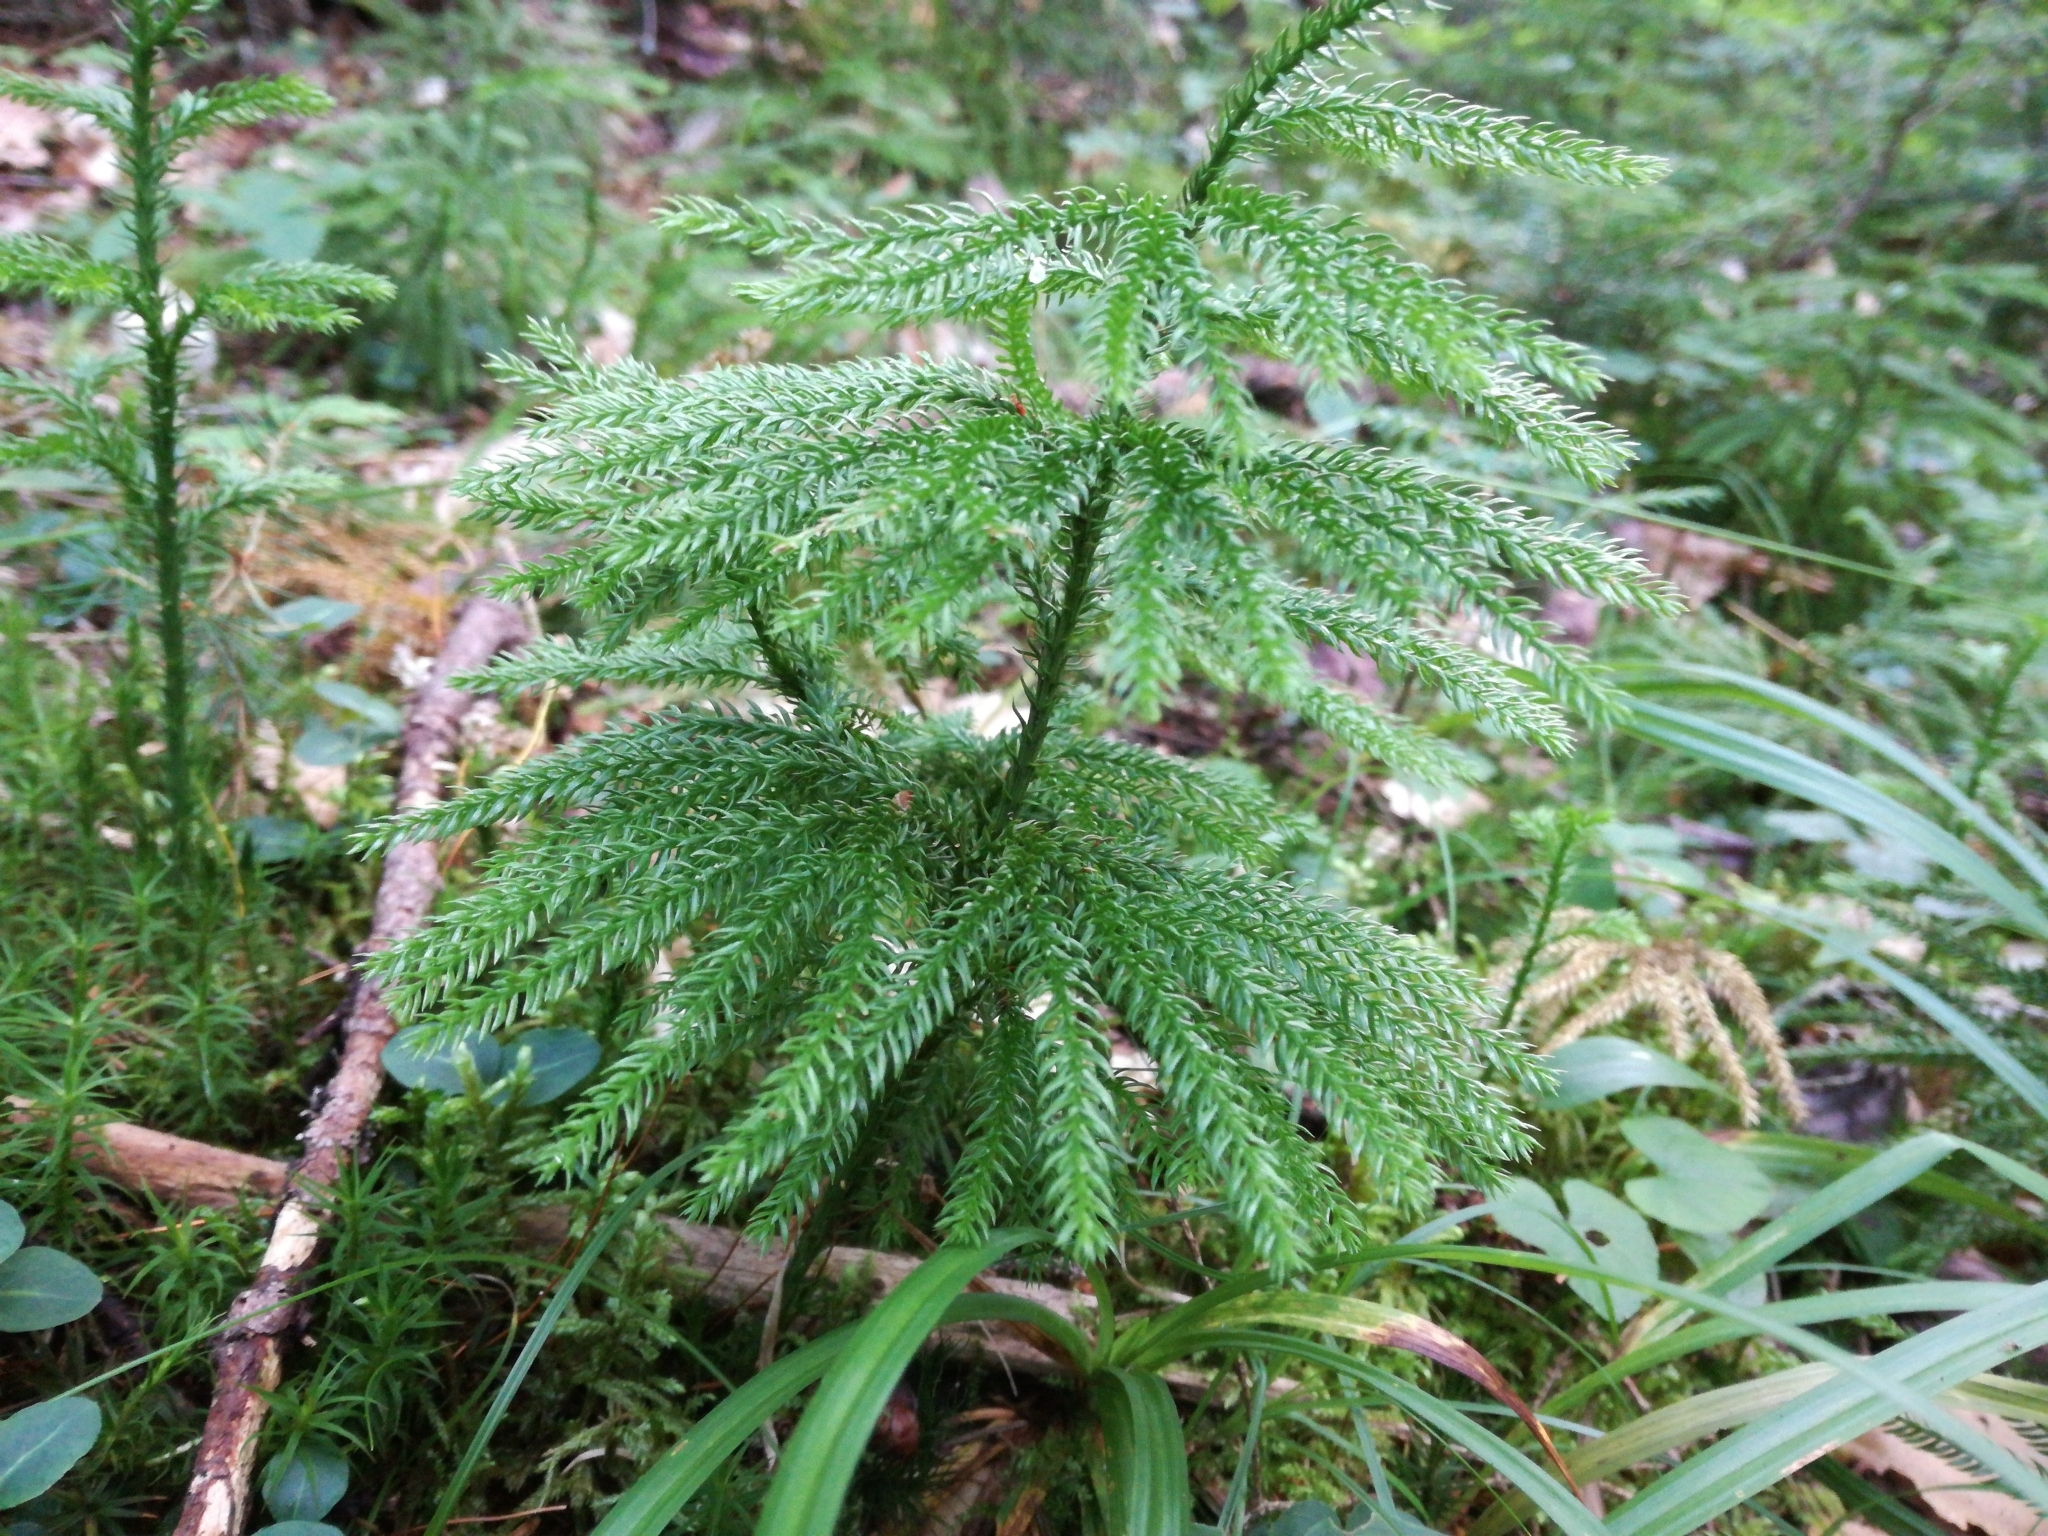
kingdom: Plantae
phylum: Tracheophyta
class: Lycopodiopsida
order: Lycopodiales
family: Lycopodiaceae
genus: Dendrolycopodium
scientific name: Dendrolycopodium dendroideum
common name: Northern tree-clubmoss
